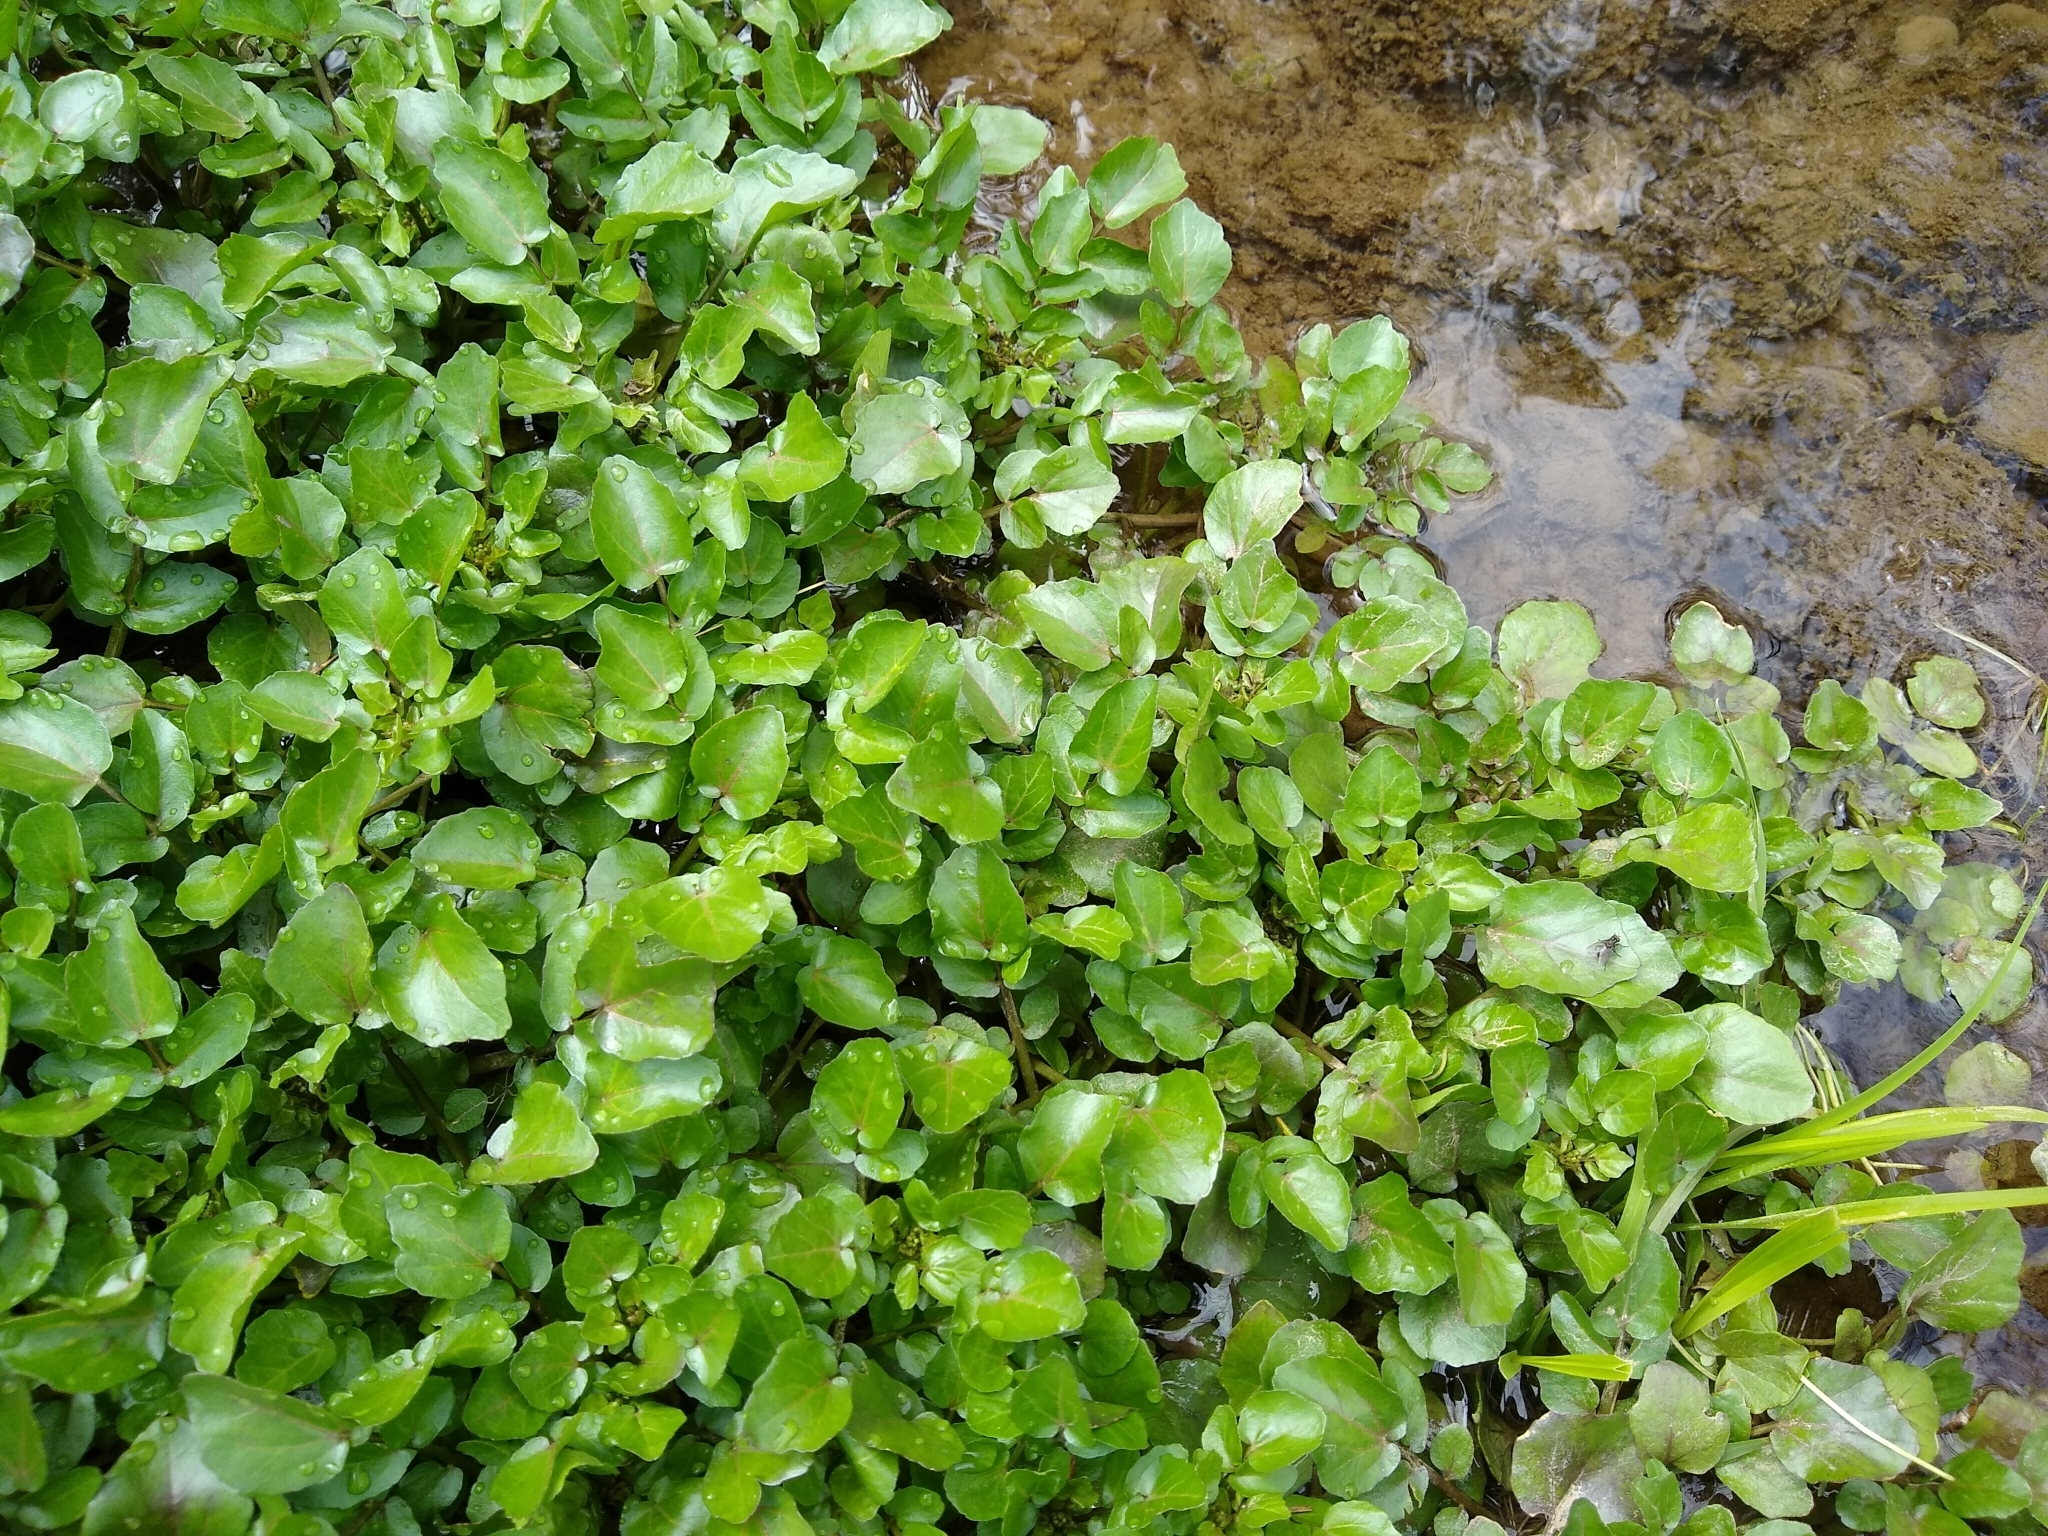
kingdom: Plantae
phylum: Tracheophyta
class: Magnoliopsida
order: Brassicales
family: Brassicaceae
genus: Nasturtium
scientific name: Nasturtium officinale
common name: Watercress
